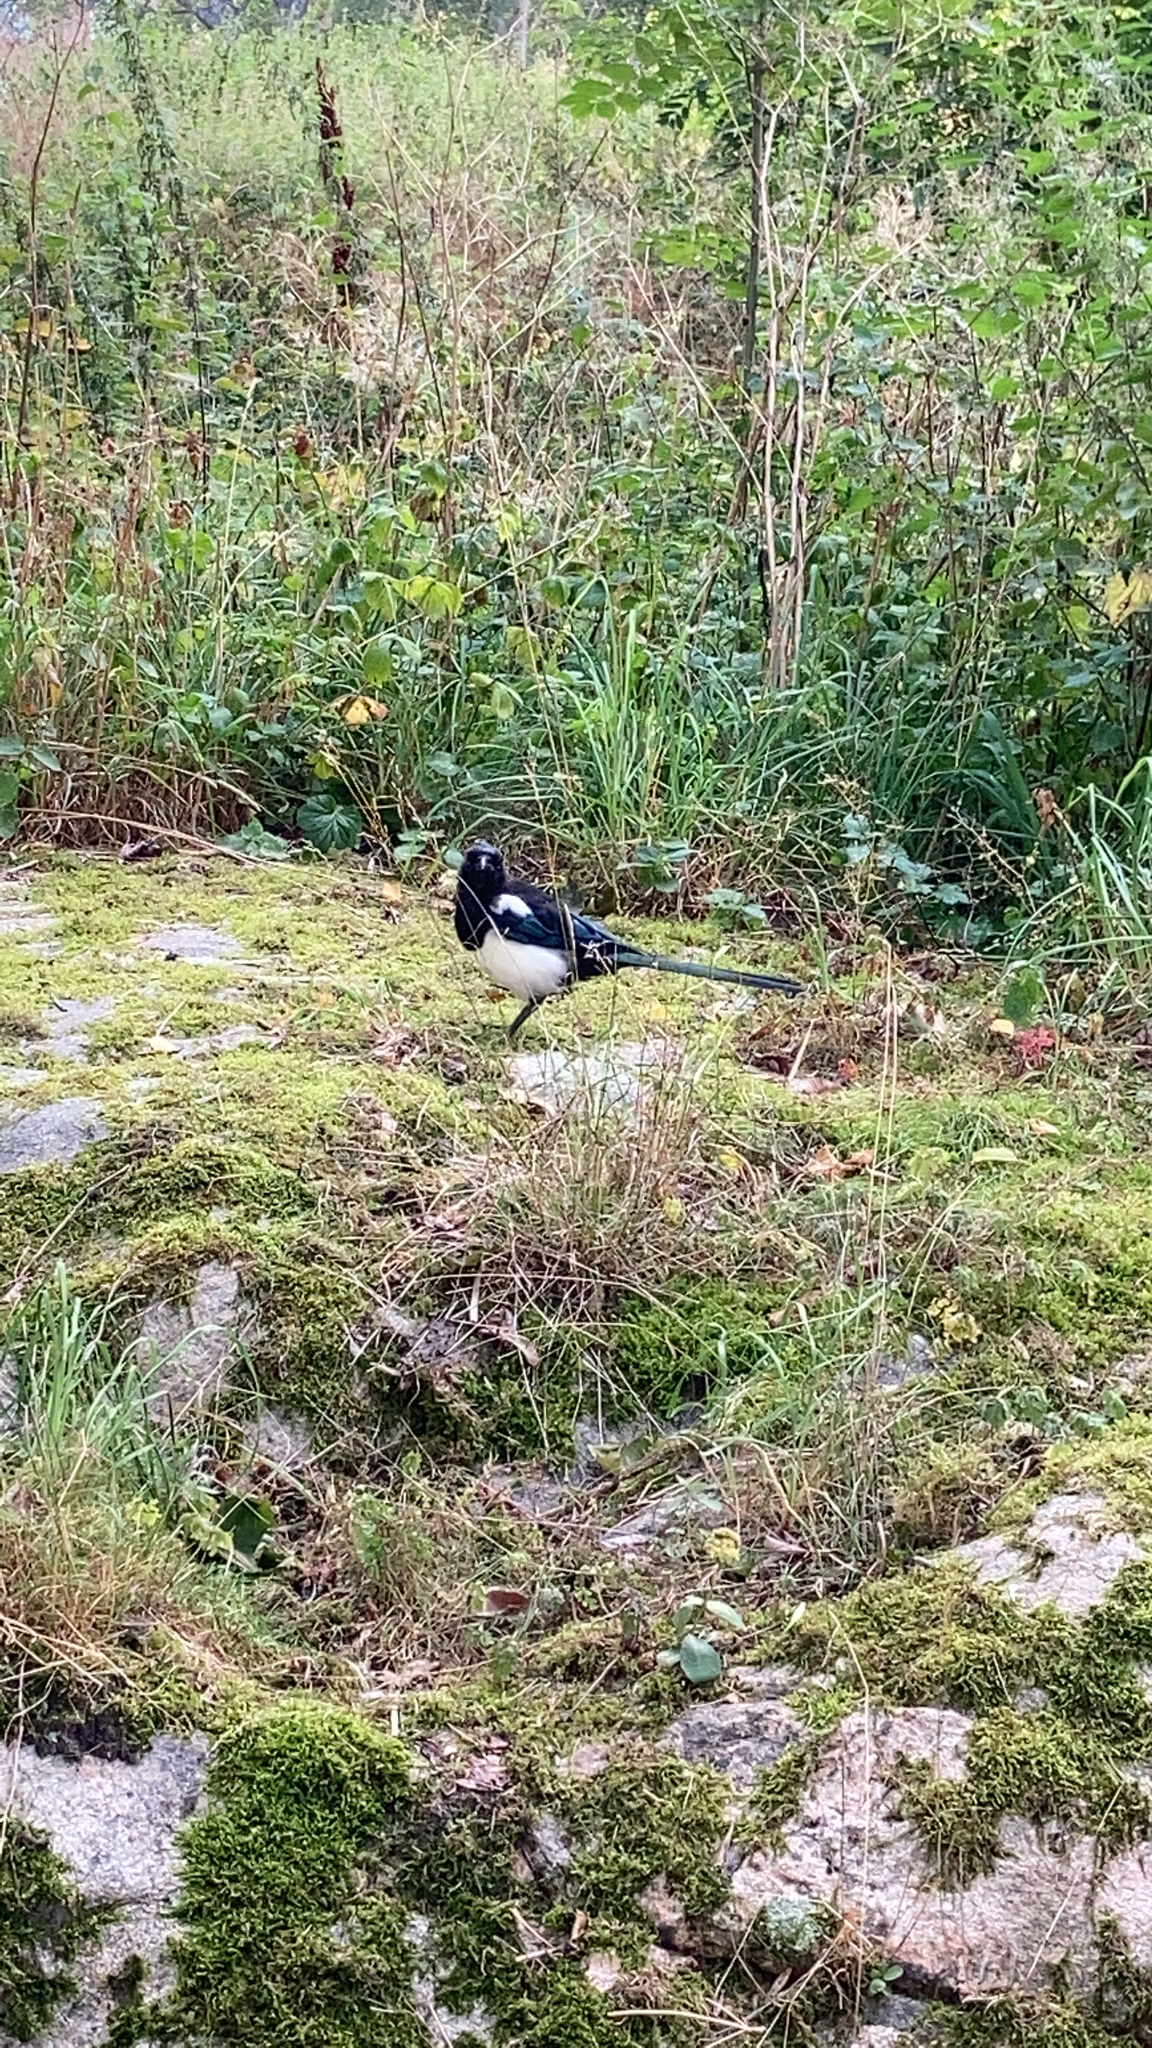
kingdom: Animalia
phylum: Chordata
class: Aves
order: Passeriformes
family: Corvidae
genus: Pica
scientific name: Pica pica
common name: Eurasian magpie
